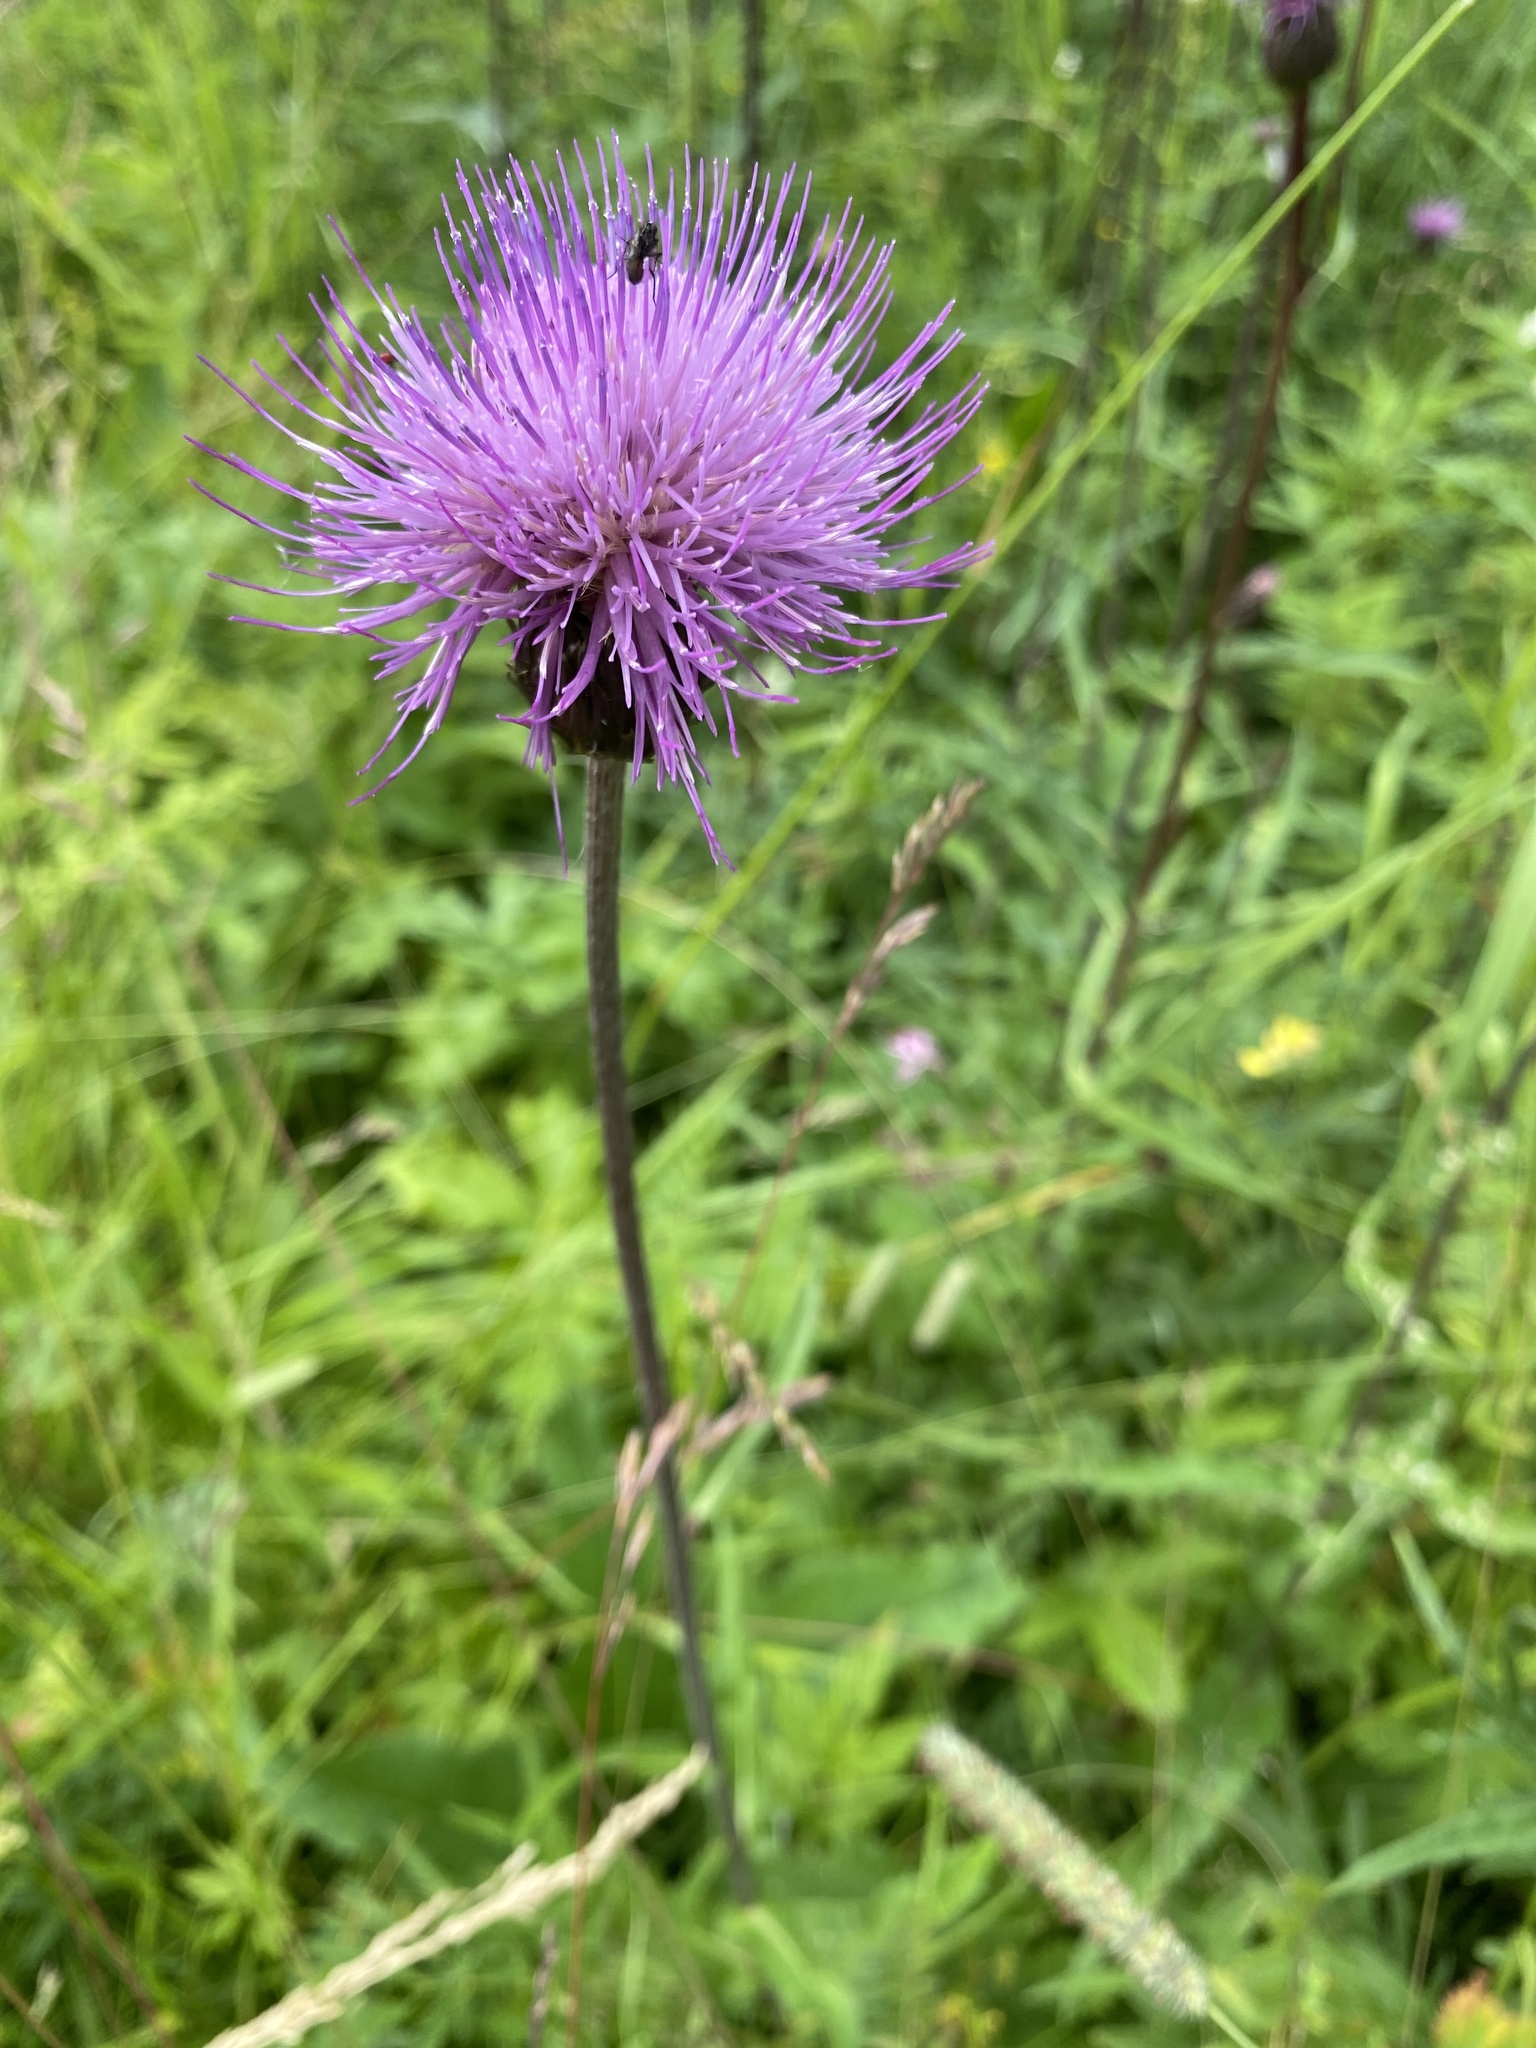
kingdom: Plantae
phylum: Tracheophyta
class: Magnoliopsida
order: Asterales
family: Asteraceae
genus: Cirsium
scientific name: Cirsium heterophyllum
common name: Melancholy thistle
